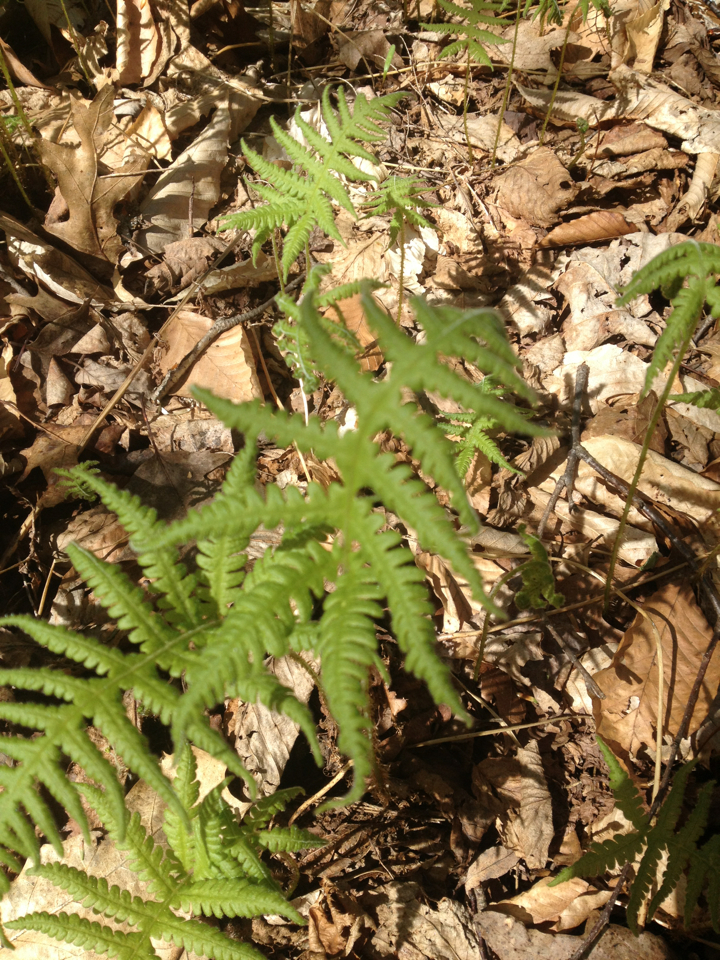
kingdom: Plantae
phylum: Tracheophyta
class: Polypodiopsida
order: Polypodiales
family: Thelypteridaceae
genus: Phegopteris
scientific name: Phegopteris connectilis
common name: Beech fern
